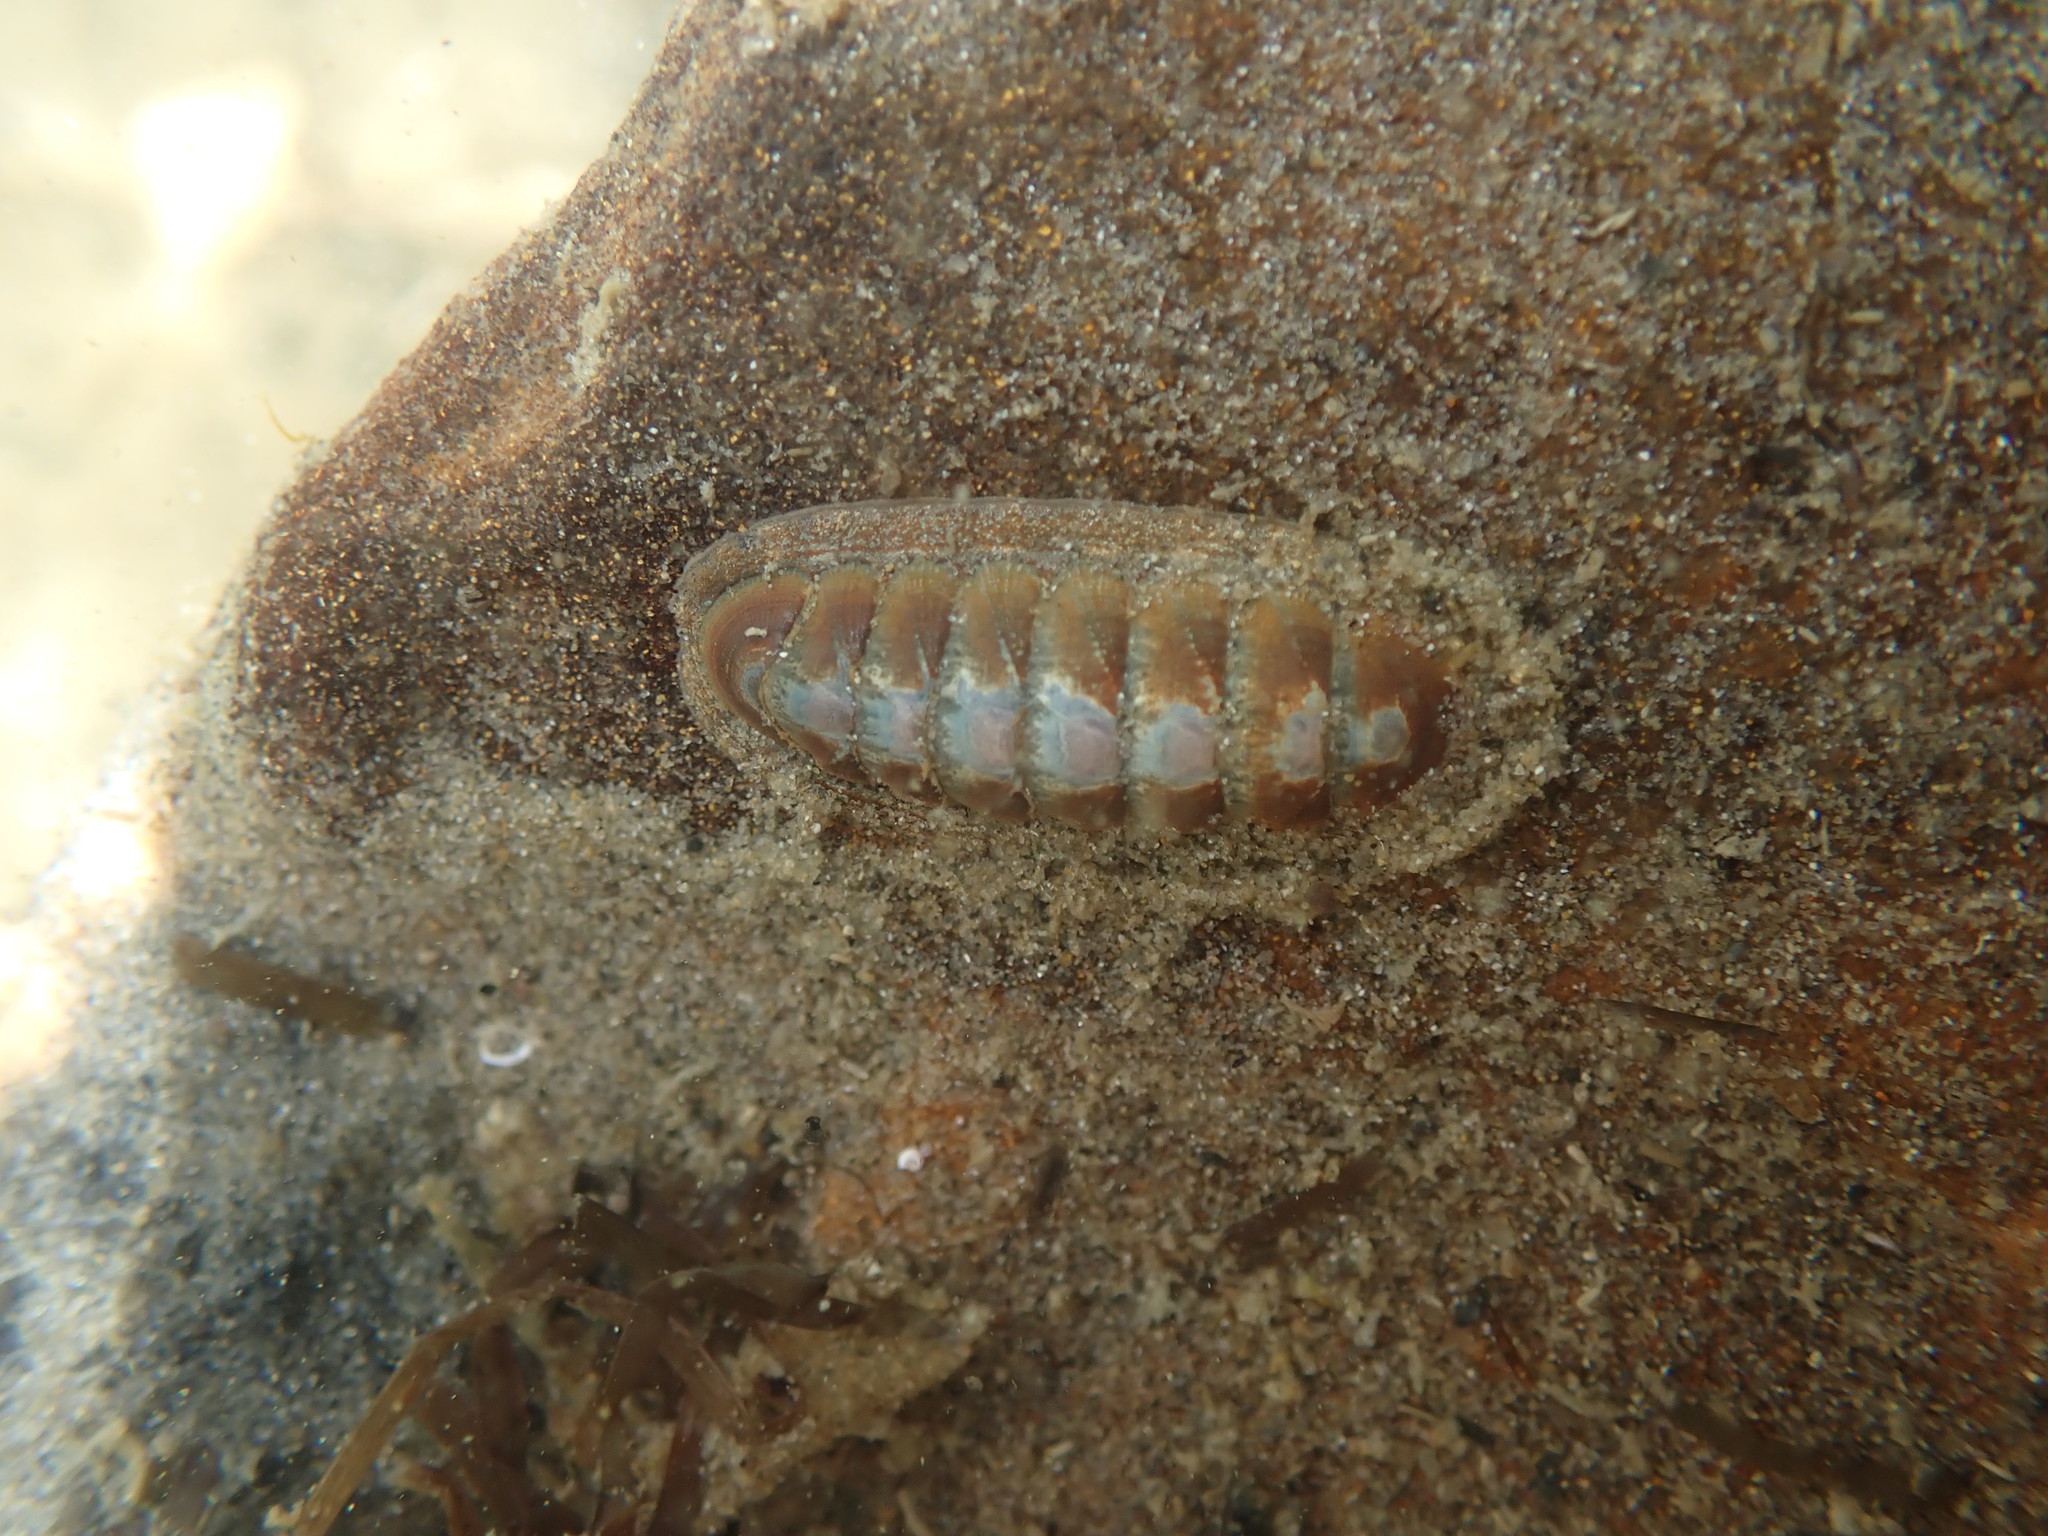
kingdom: Animalia
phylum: Mollusca
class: Polyplacophora
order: Chitonida
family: Ischnochitonidae
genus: Ischnochiton
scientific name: Ischnochiton maorianus
